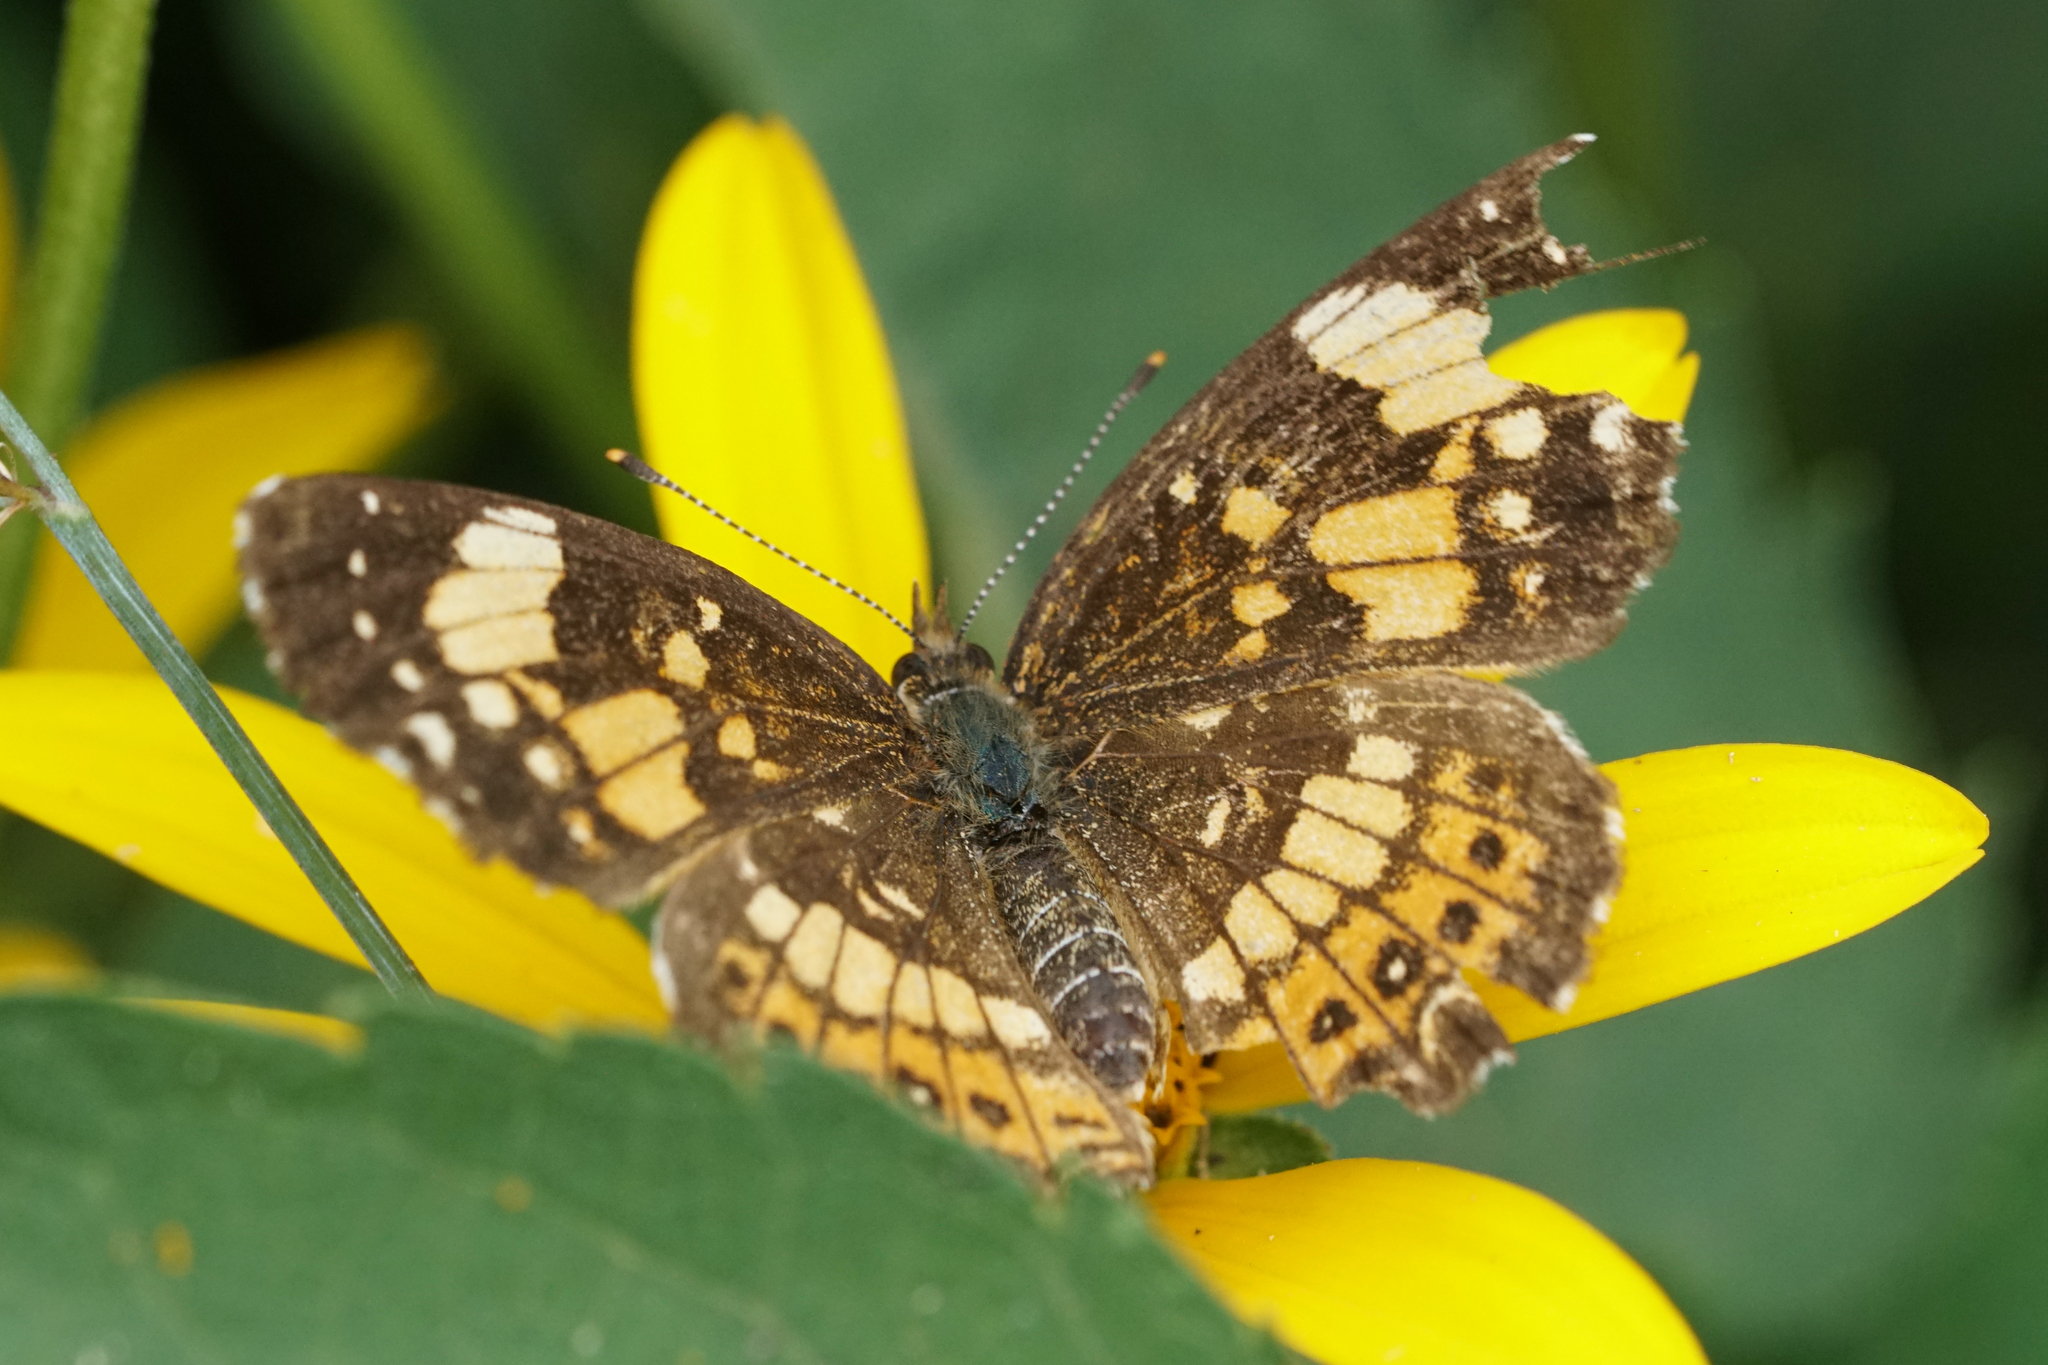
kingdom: Animalia
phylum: Arthropoda
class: Insecta
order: Lepidoptera
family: Nymphalidae
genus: Chlosyne
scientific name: Chlosyne nycteis
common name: Silvery checkerspot
